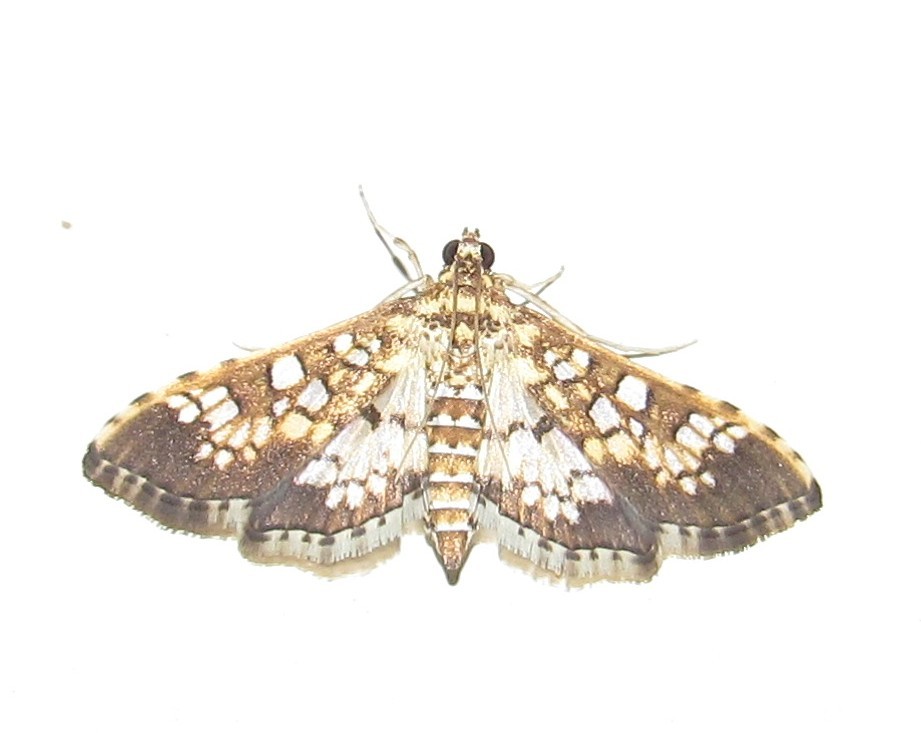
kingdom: Animalia
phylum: Arthropoda
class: Insecta
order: Lepidoptera
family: Crambidae
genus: Samea
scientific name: Samea ecclesialis
